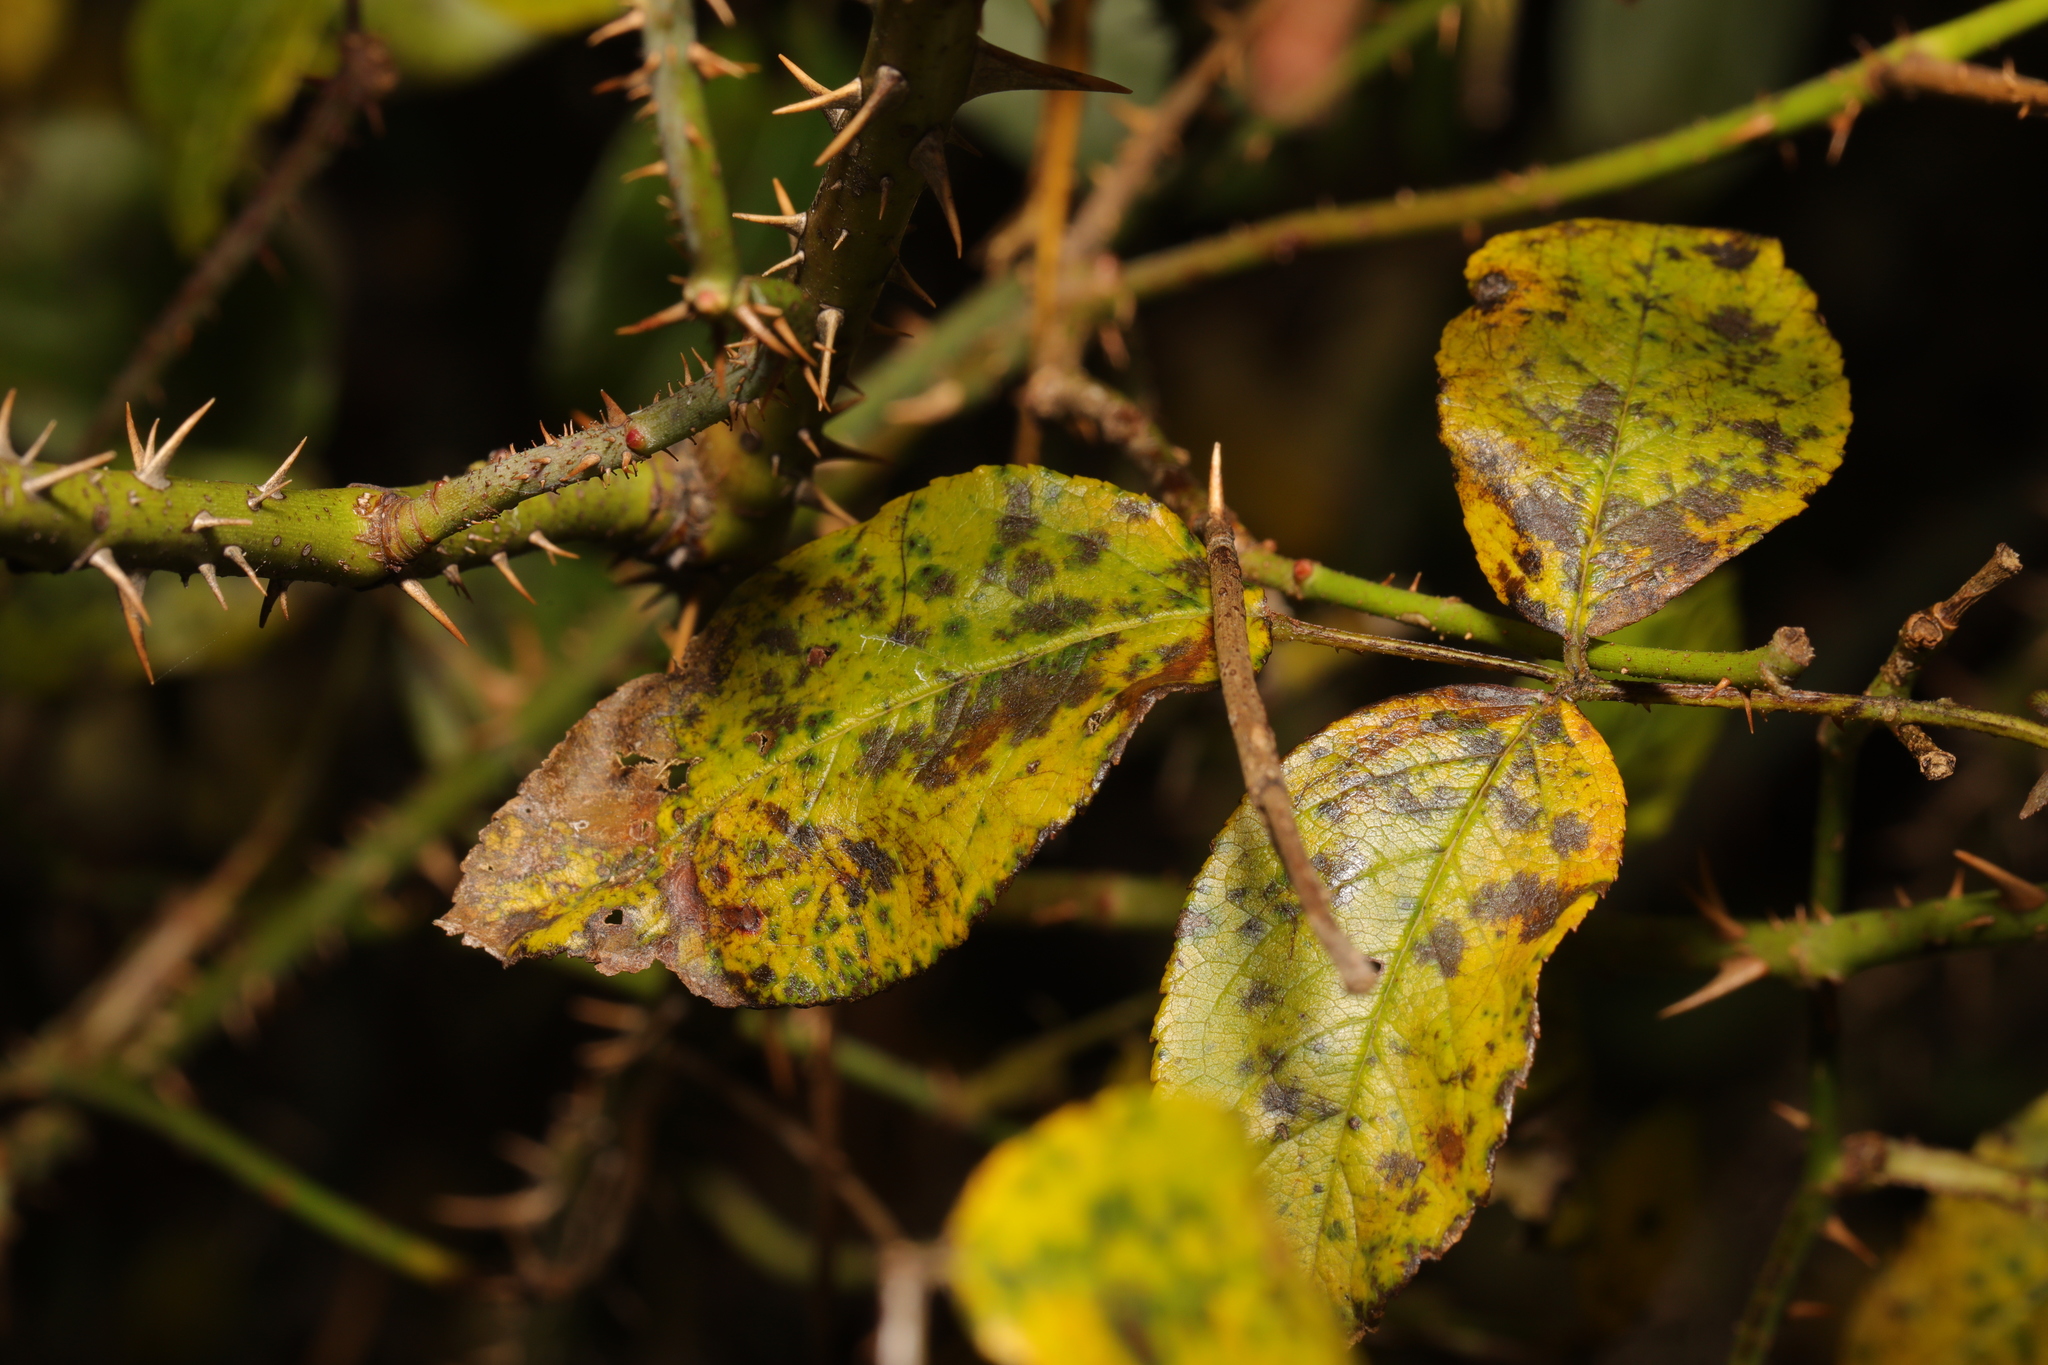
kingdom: Fungi
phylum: Ascomycota
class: Leotiomycetes
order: Helotiales
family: Drepanopezizaceae
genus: Diplocarpon
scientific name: Diplocarpon rosae
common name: Rose black-spot
